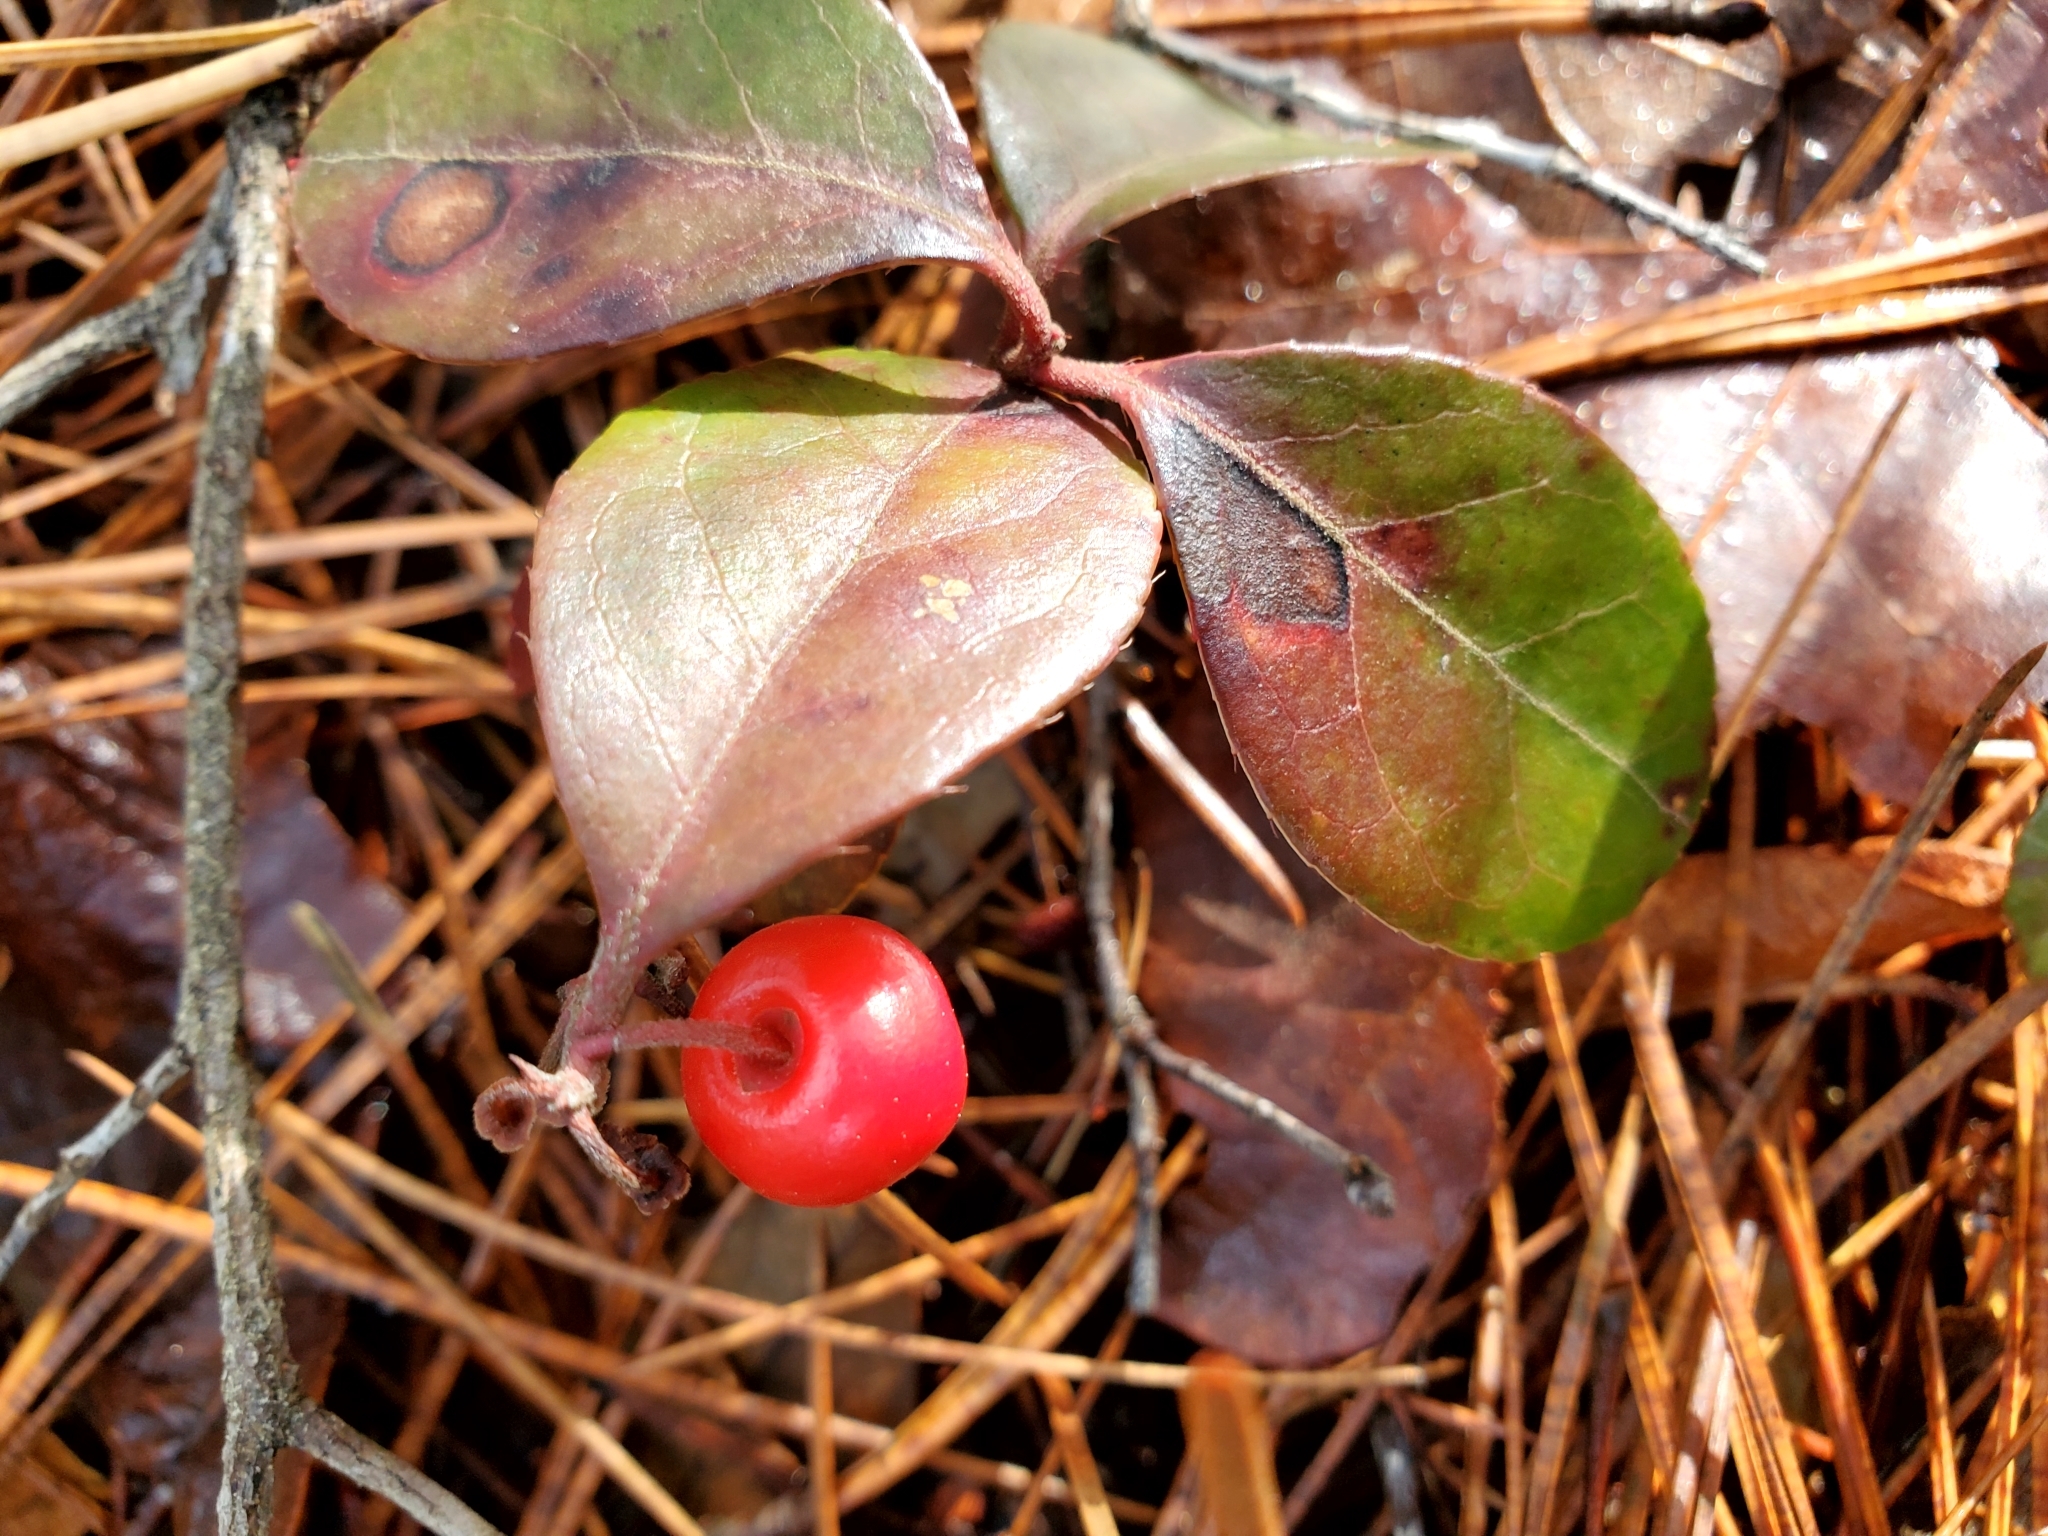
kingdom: Plantae
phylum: Tracheophyta
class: Magnoliopsida
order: Ericales
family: Ericaceae
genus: Gaultheria
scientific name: Gaultheria procumbens
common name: Checkerberry
